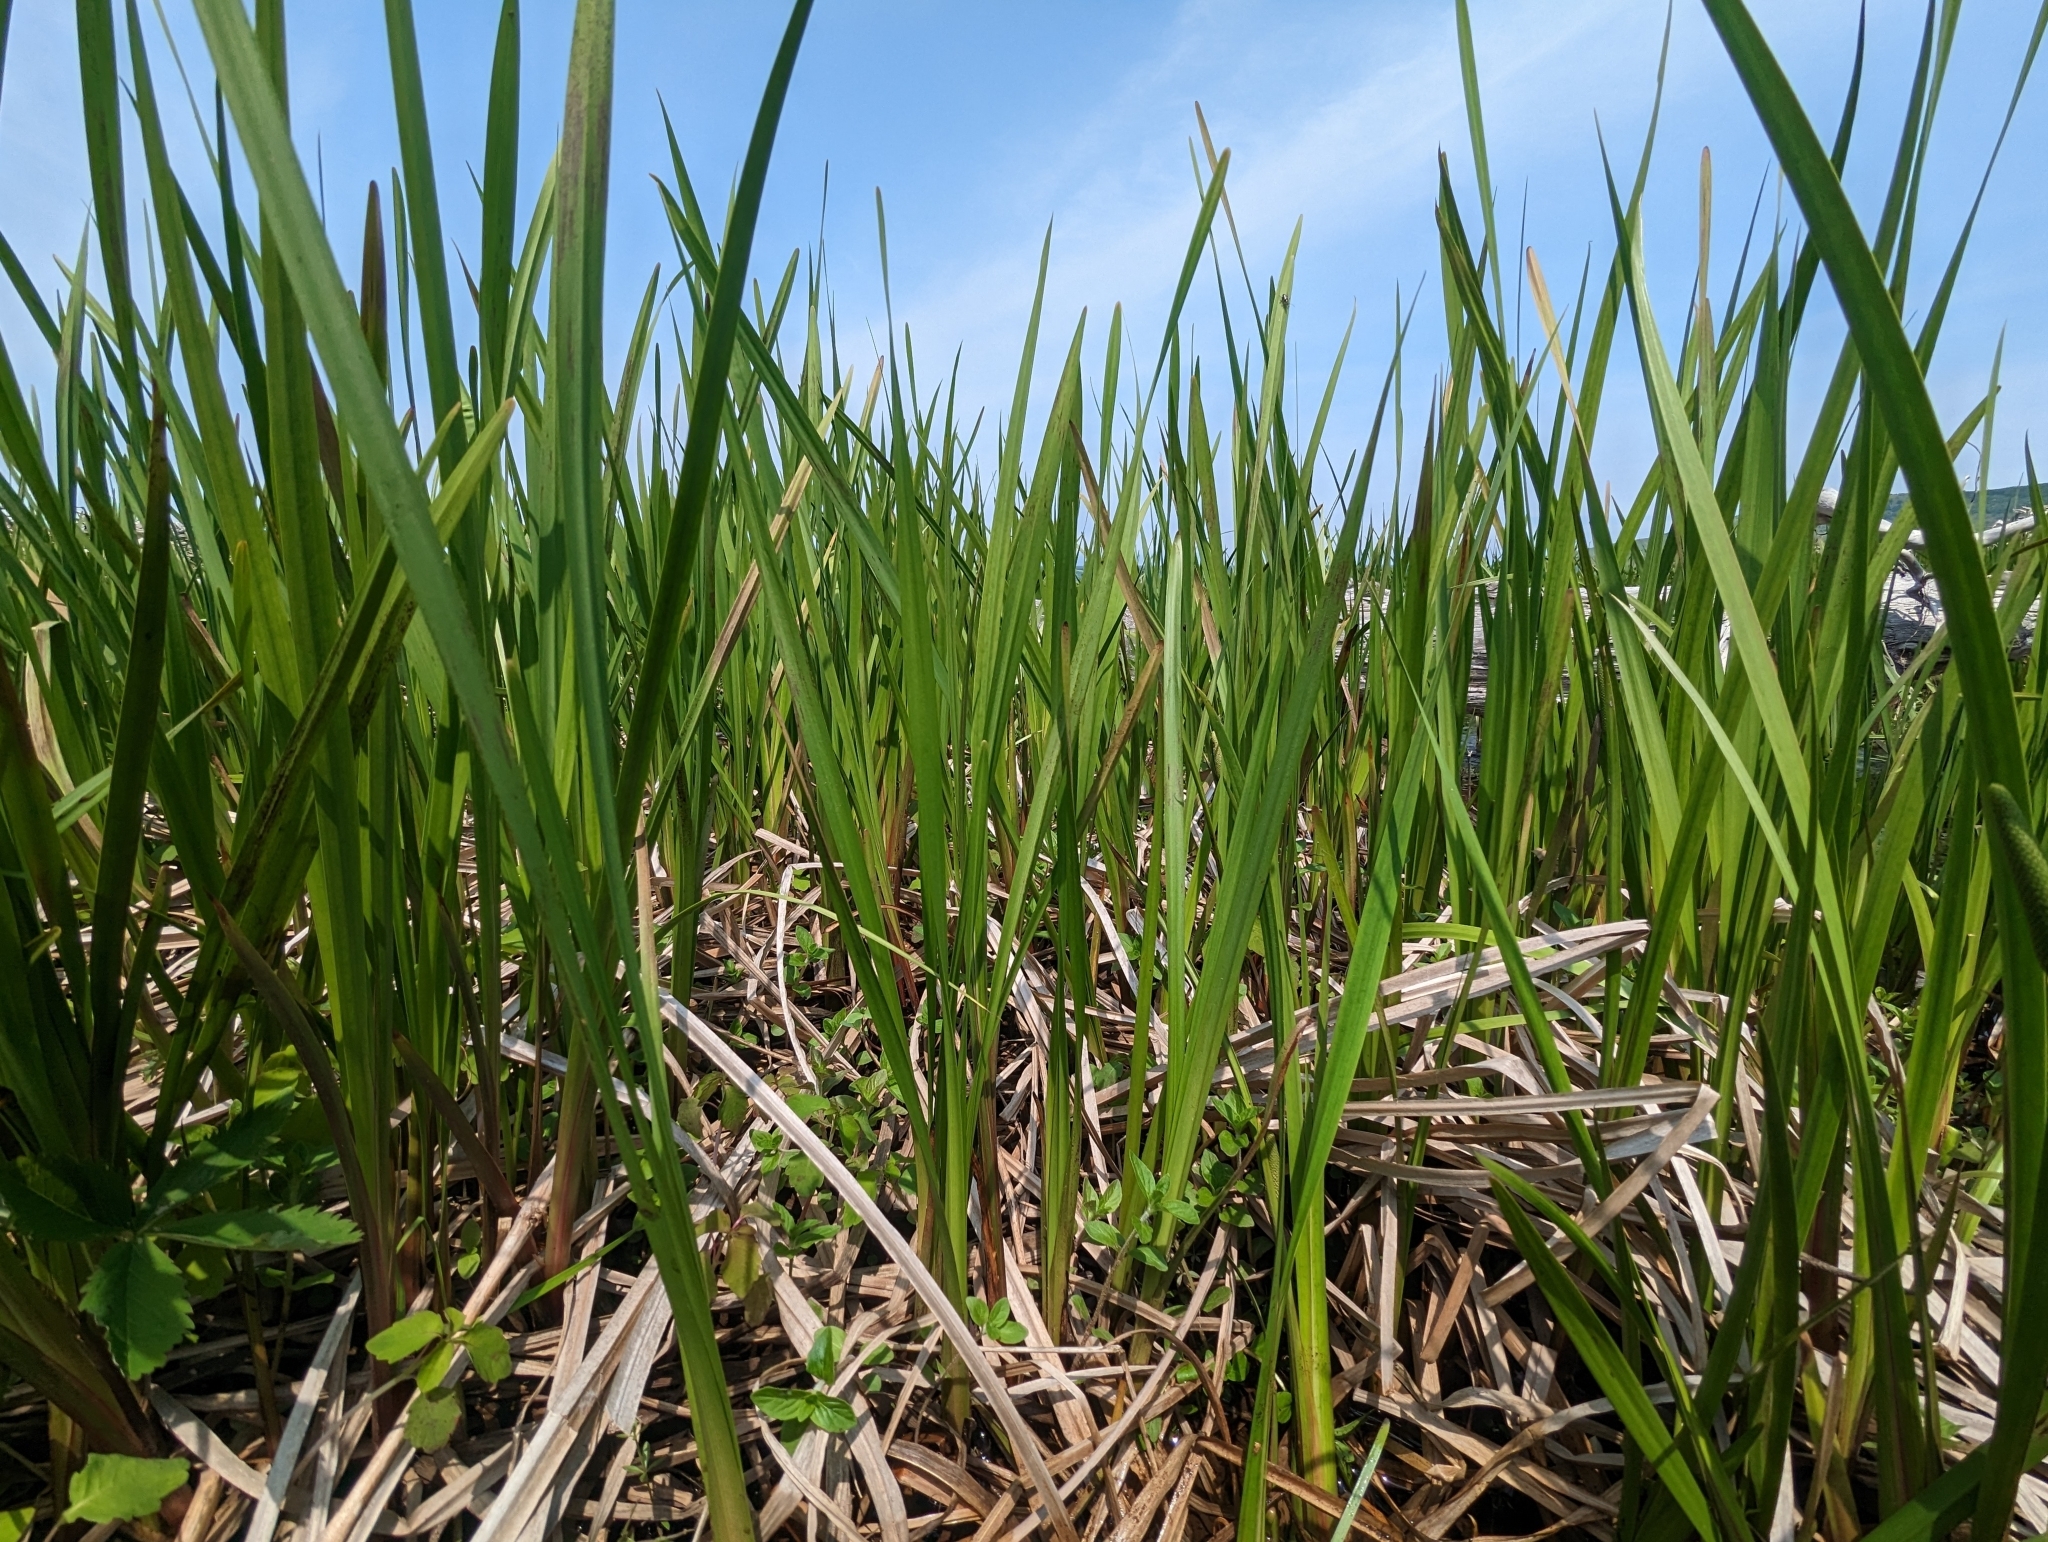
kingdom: Plantae
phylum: Tracheophyta
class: Liliopsida
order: Acorales
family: Acoraceae
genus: Acorus
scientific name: Acorus calamus
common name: Sweet-flag
